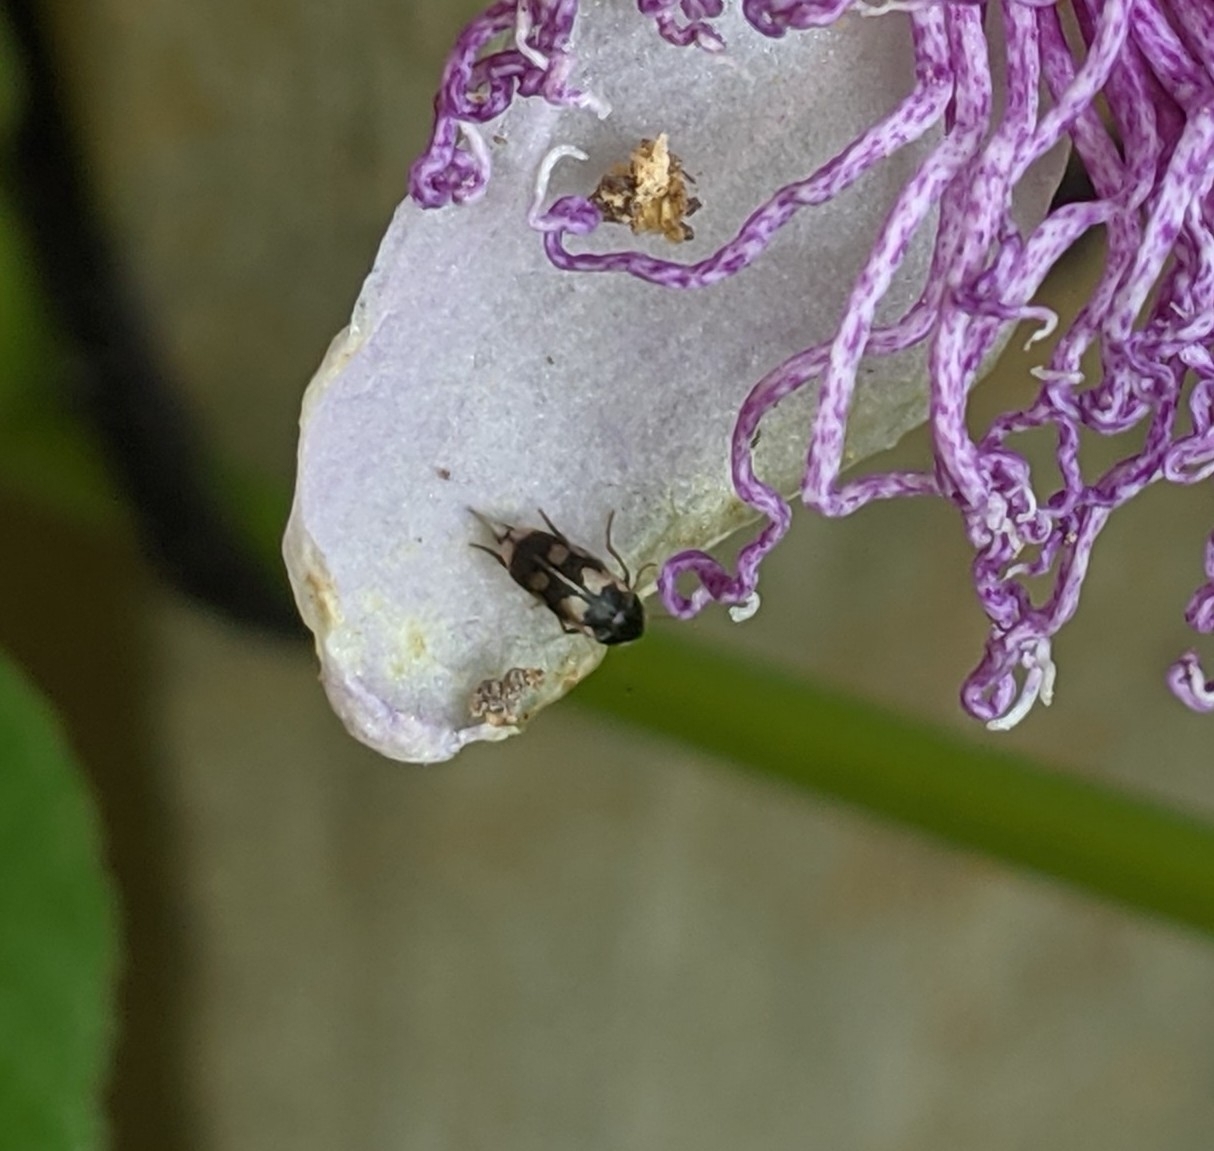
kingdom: Animalia
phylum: Arthropoda
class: Insecta
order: Coleoptera
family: Mordellidae
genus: Falsomordellistena
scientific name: Falsomordellistena pubescens
